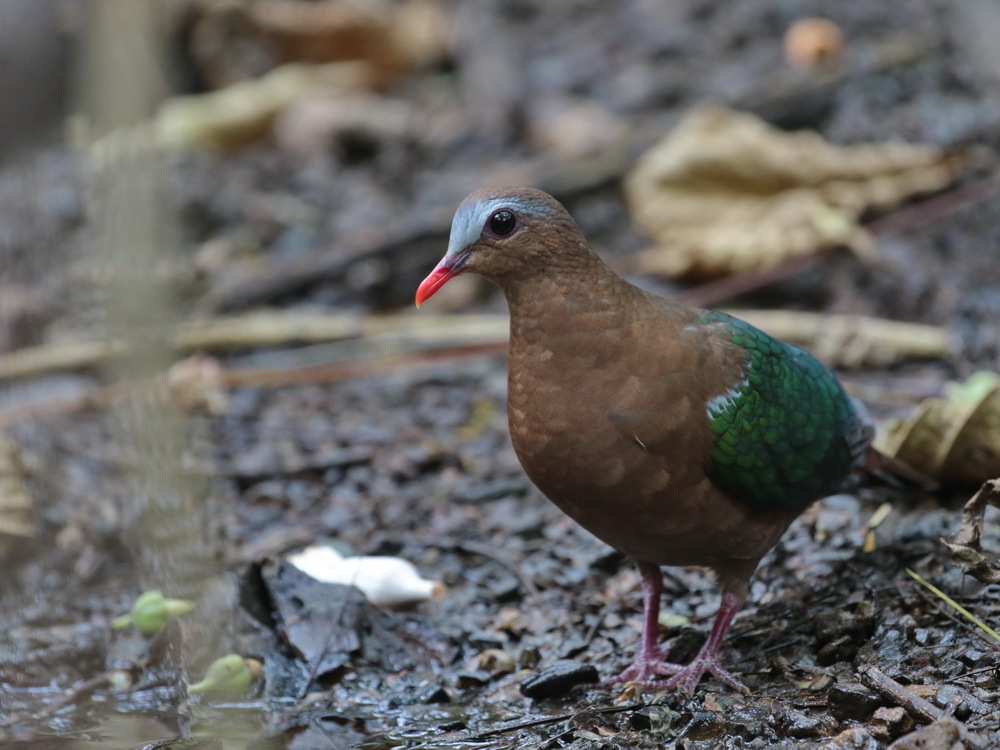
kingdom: Animalia
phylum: Chordata
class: Aves
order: Columbiformes
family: Columbidae
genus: Chalcophaps
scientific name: Chalcophaps indica
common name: Common emerald dove
